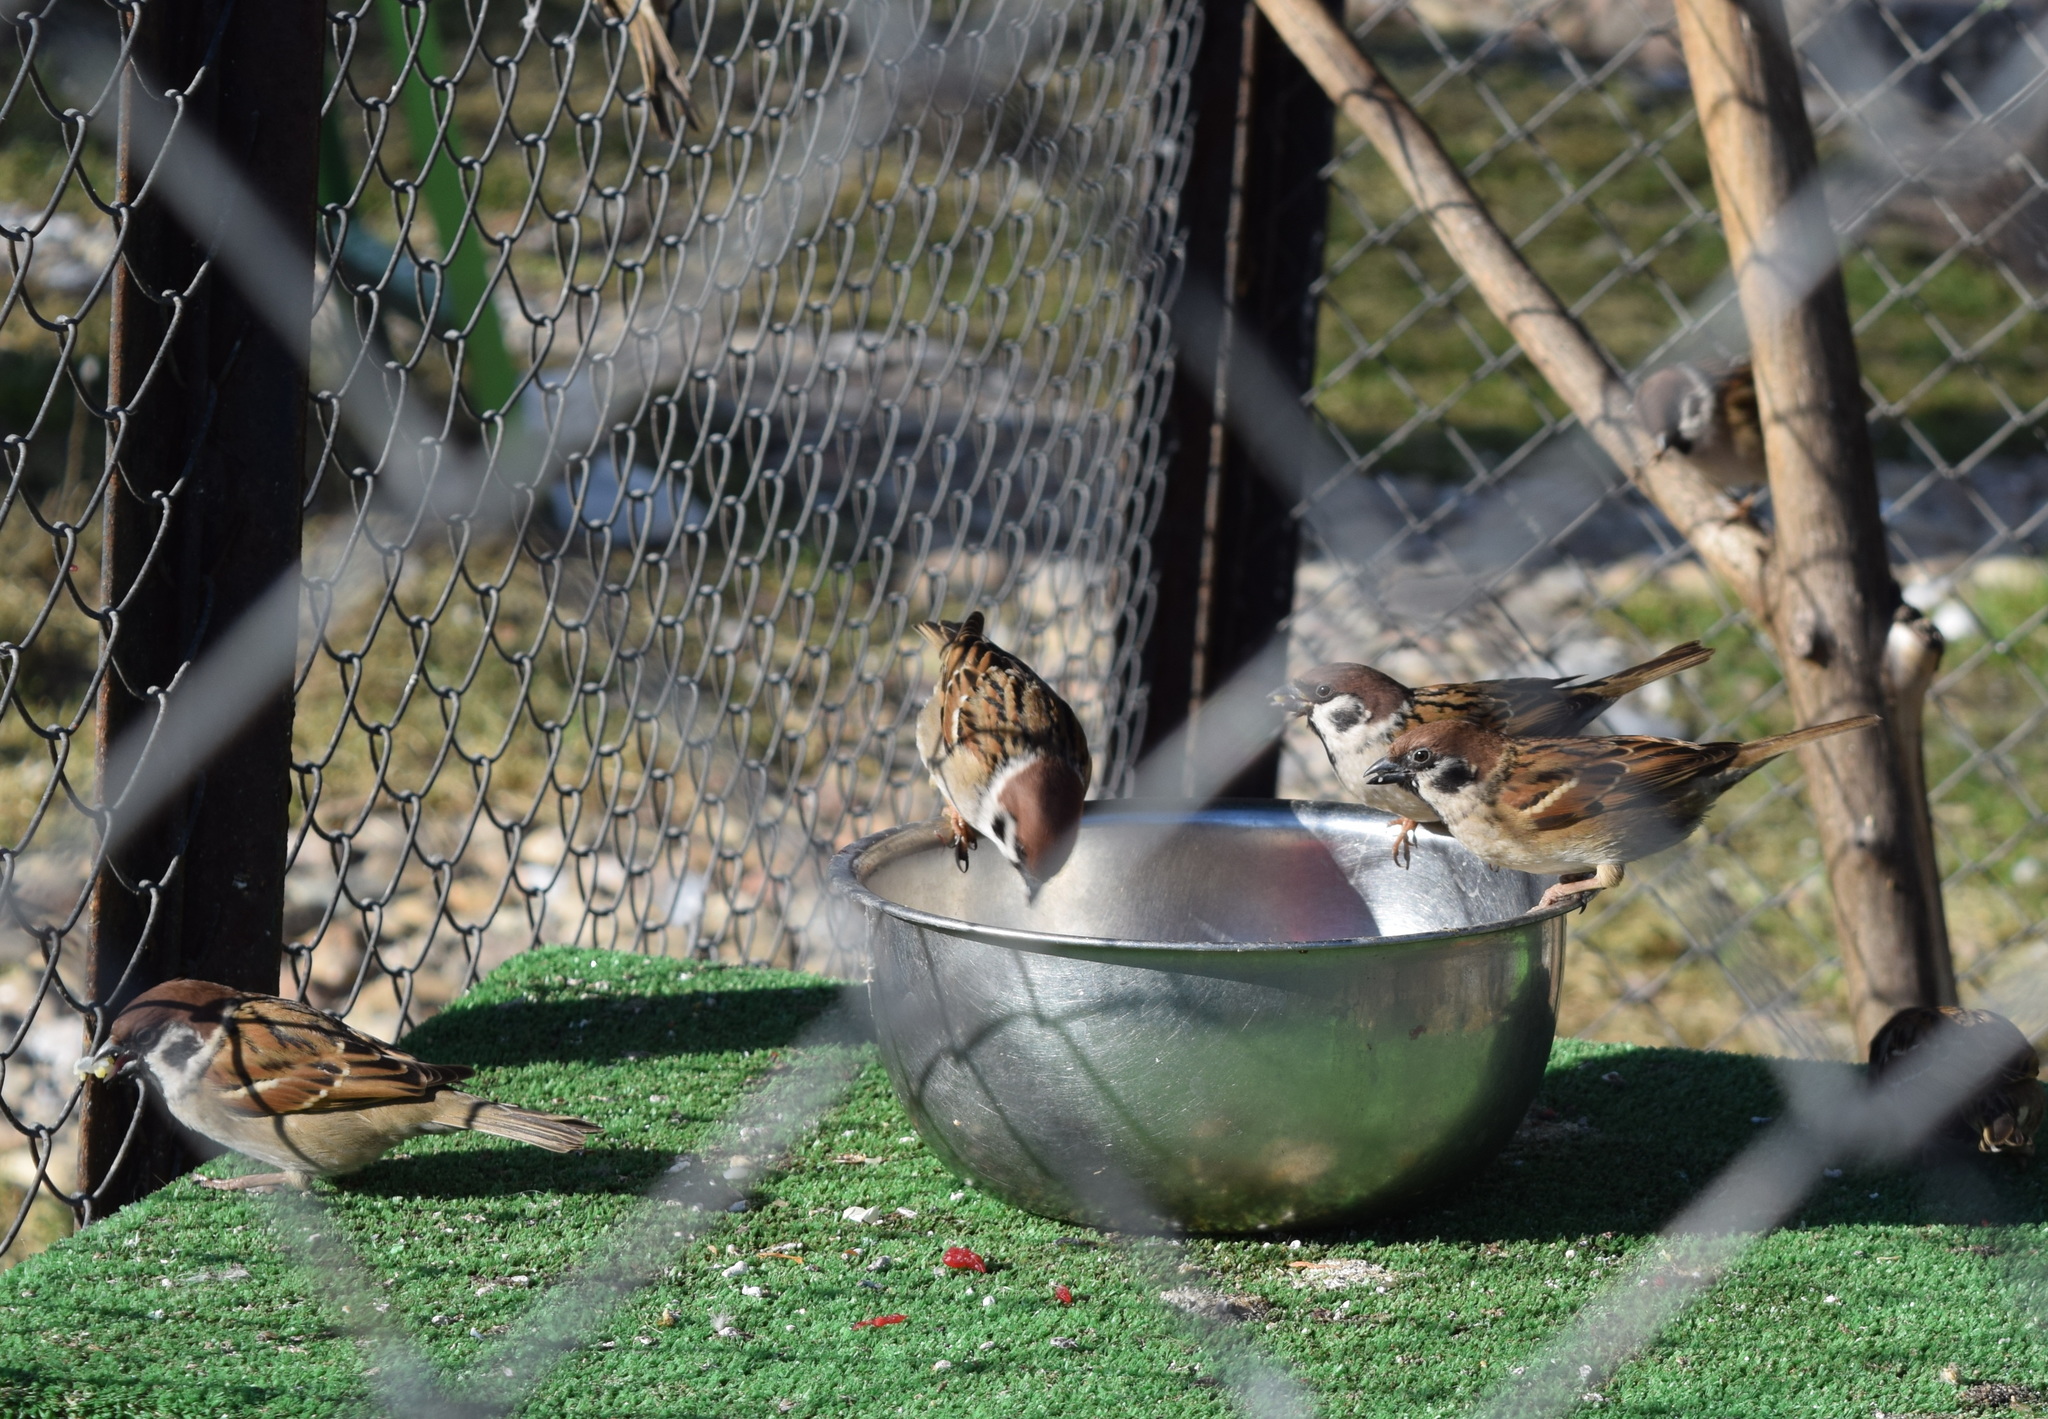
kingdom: Animalia
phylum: Chordata
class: Aves
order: Passeriformes
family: Passeridae
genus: Passer
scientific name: Passer montanus
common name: Eurasian tree sparrow
